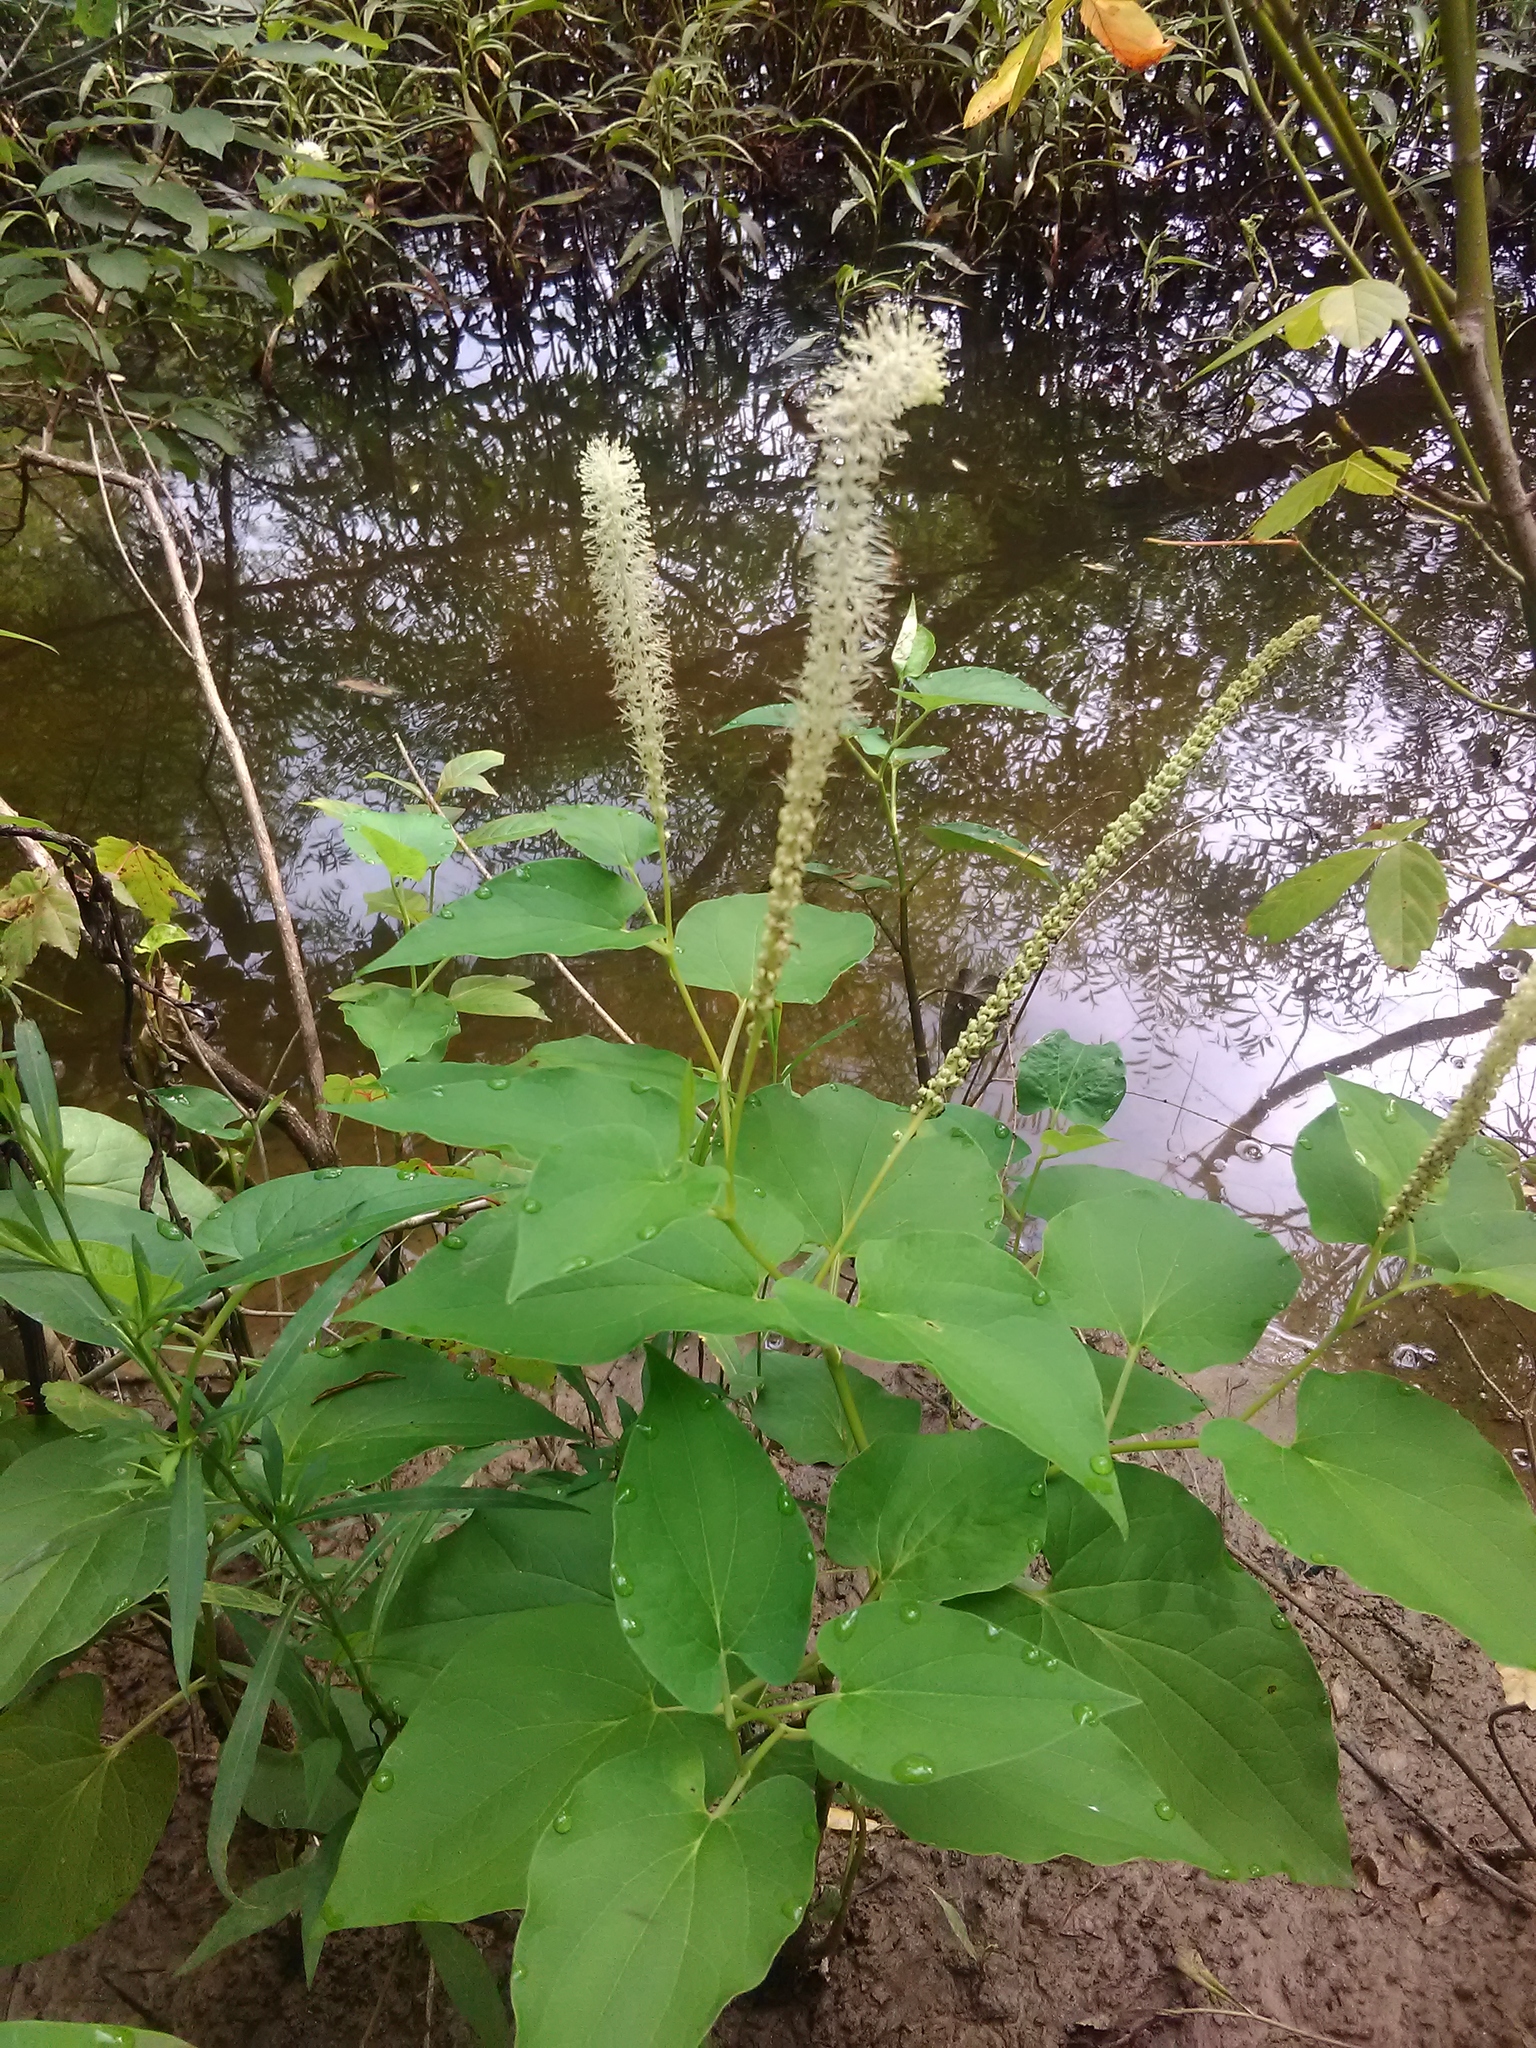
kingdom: Plantae
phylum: Tracheophyta
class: Magnoliopsida
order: Piperales
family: Saururaceae
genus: Saururus
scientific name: Saururus cernuus
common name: Lizard's-tail
